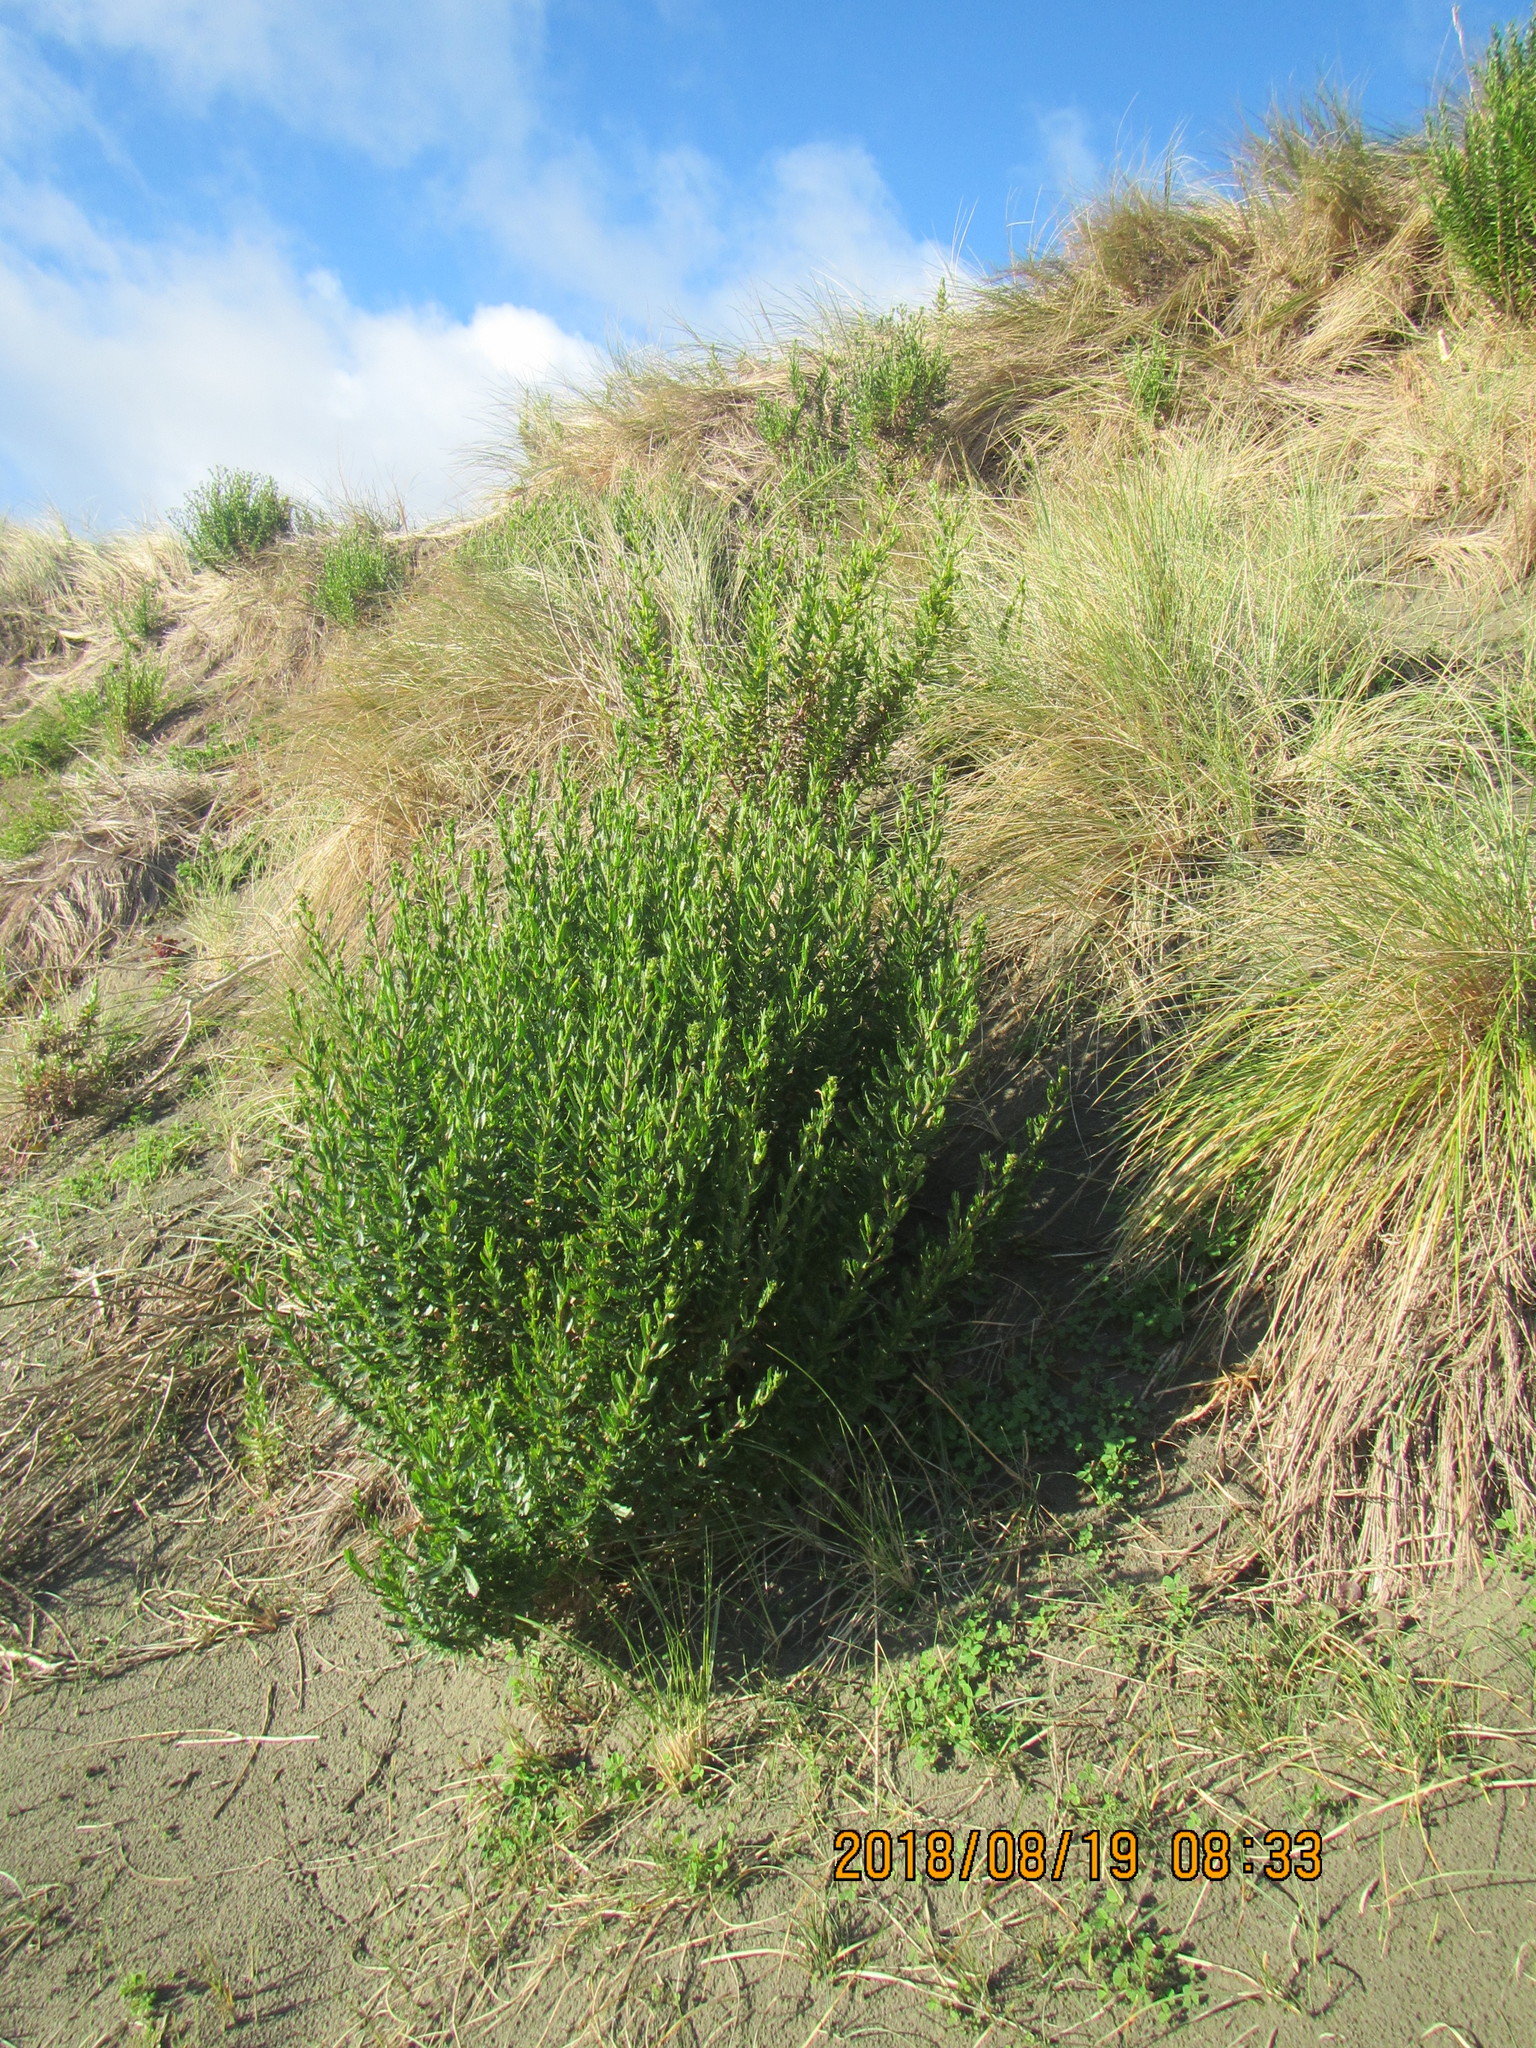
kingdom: Plantae
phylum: Tracheophyta
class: Magnoliopsida
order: Asterales
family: Asteraceae
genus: Senecio
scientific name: Senecio glastifolius
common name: Woad-leaved ragwort
